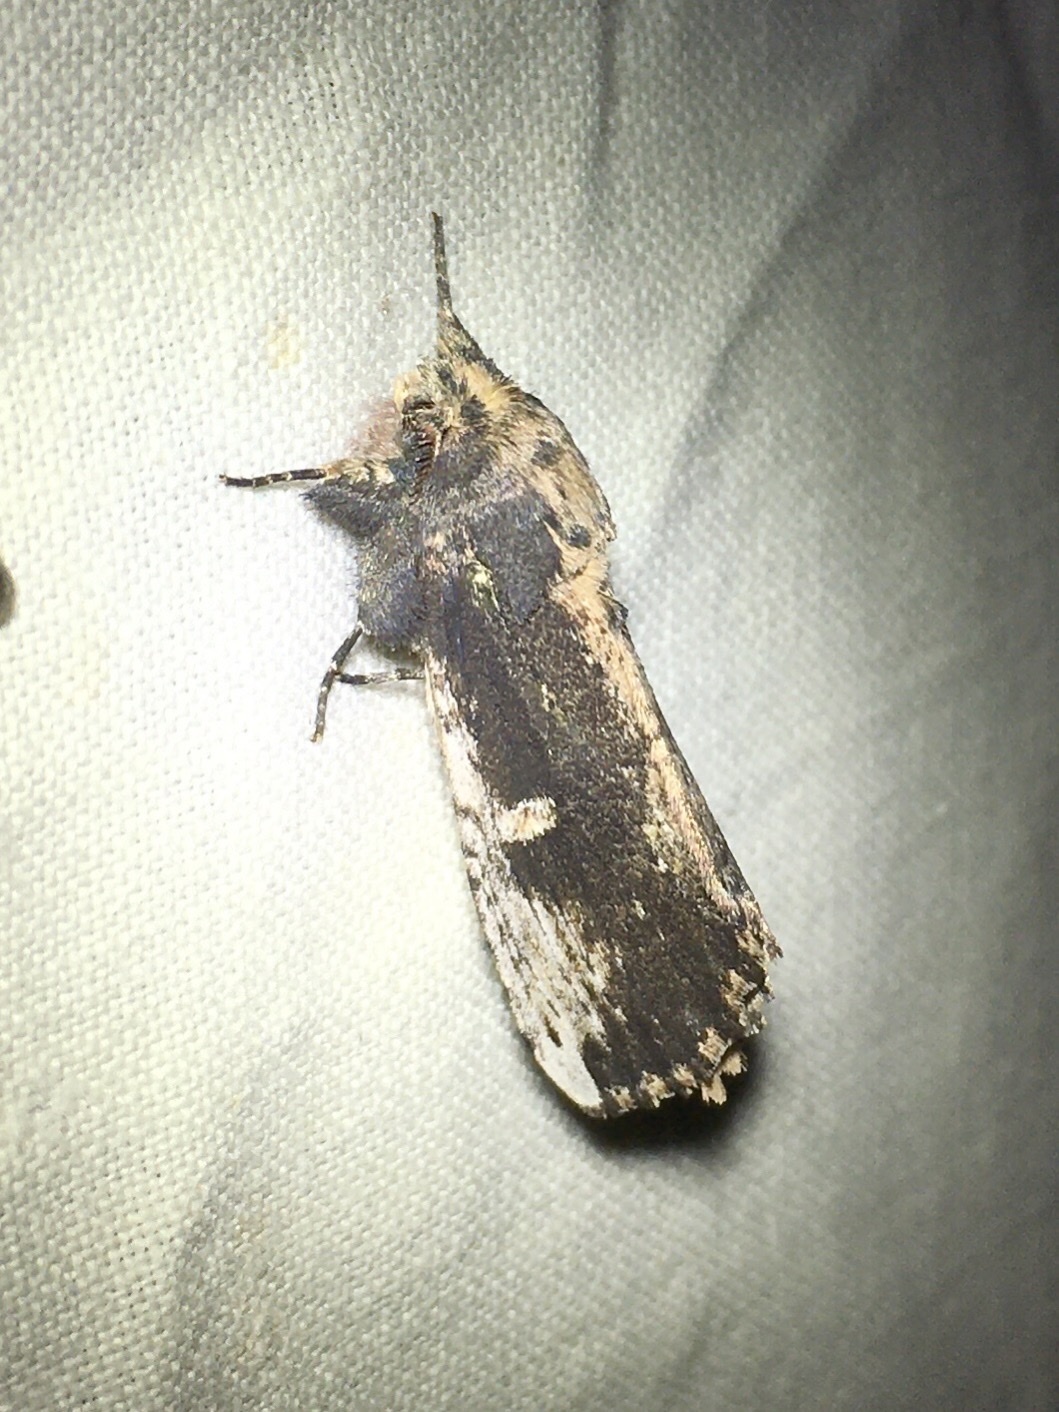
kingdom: Animalia
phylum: Arthropoda
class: Insecta
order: Lepidoptera
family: Notodontidae
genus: Schizura
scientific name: Schizura ipomaeae
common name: Morning-glory prominent
